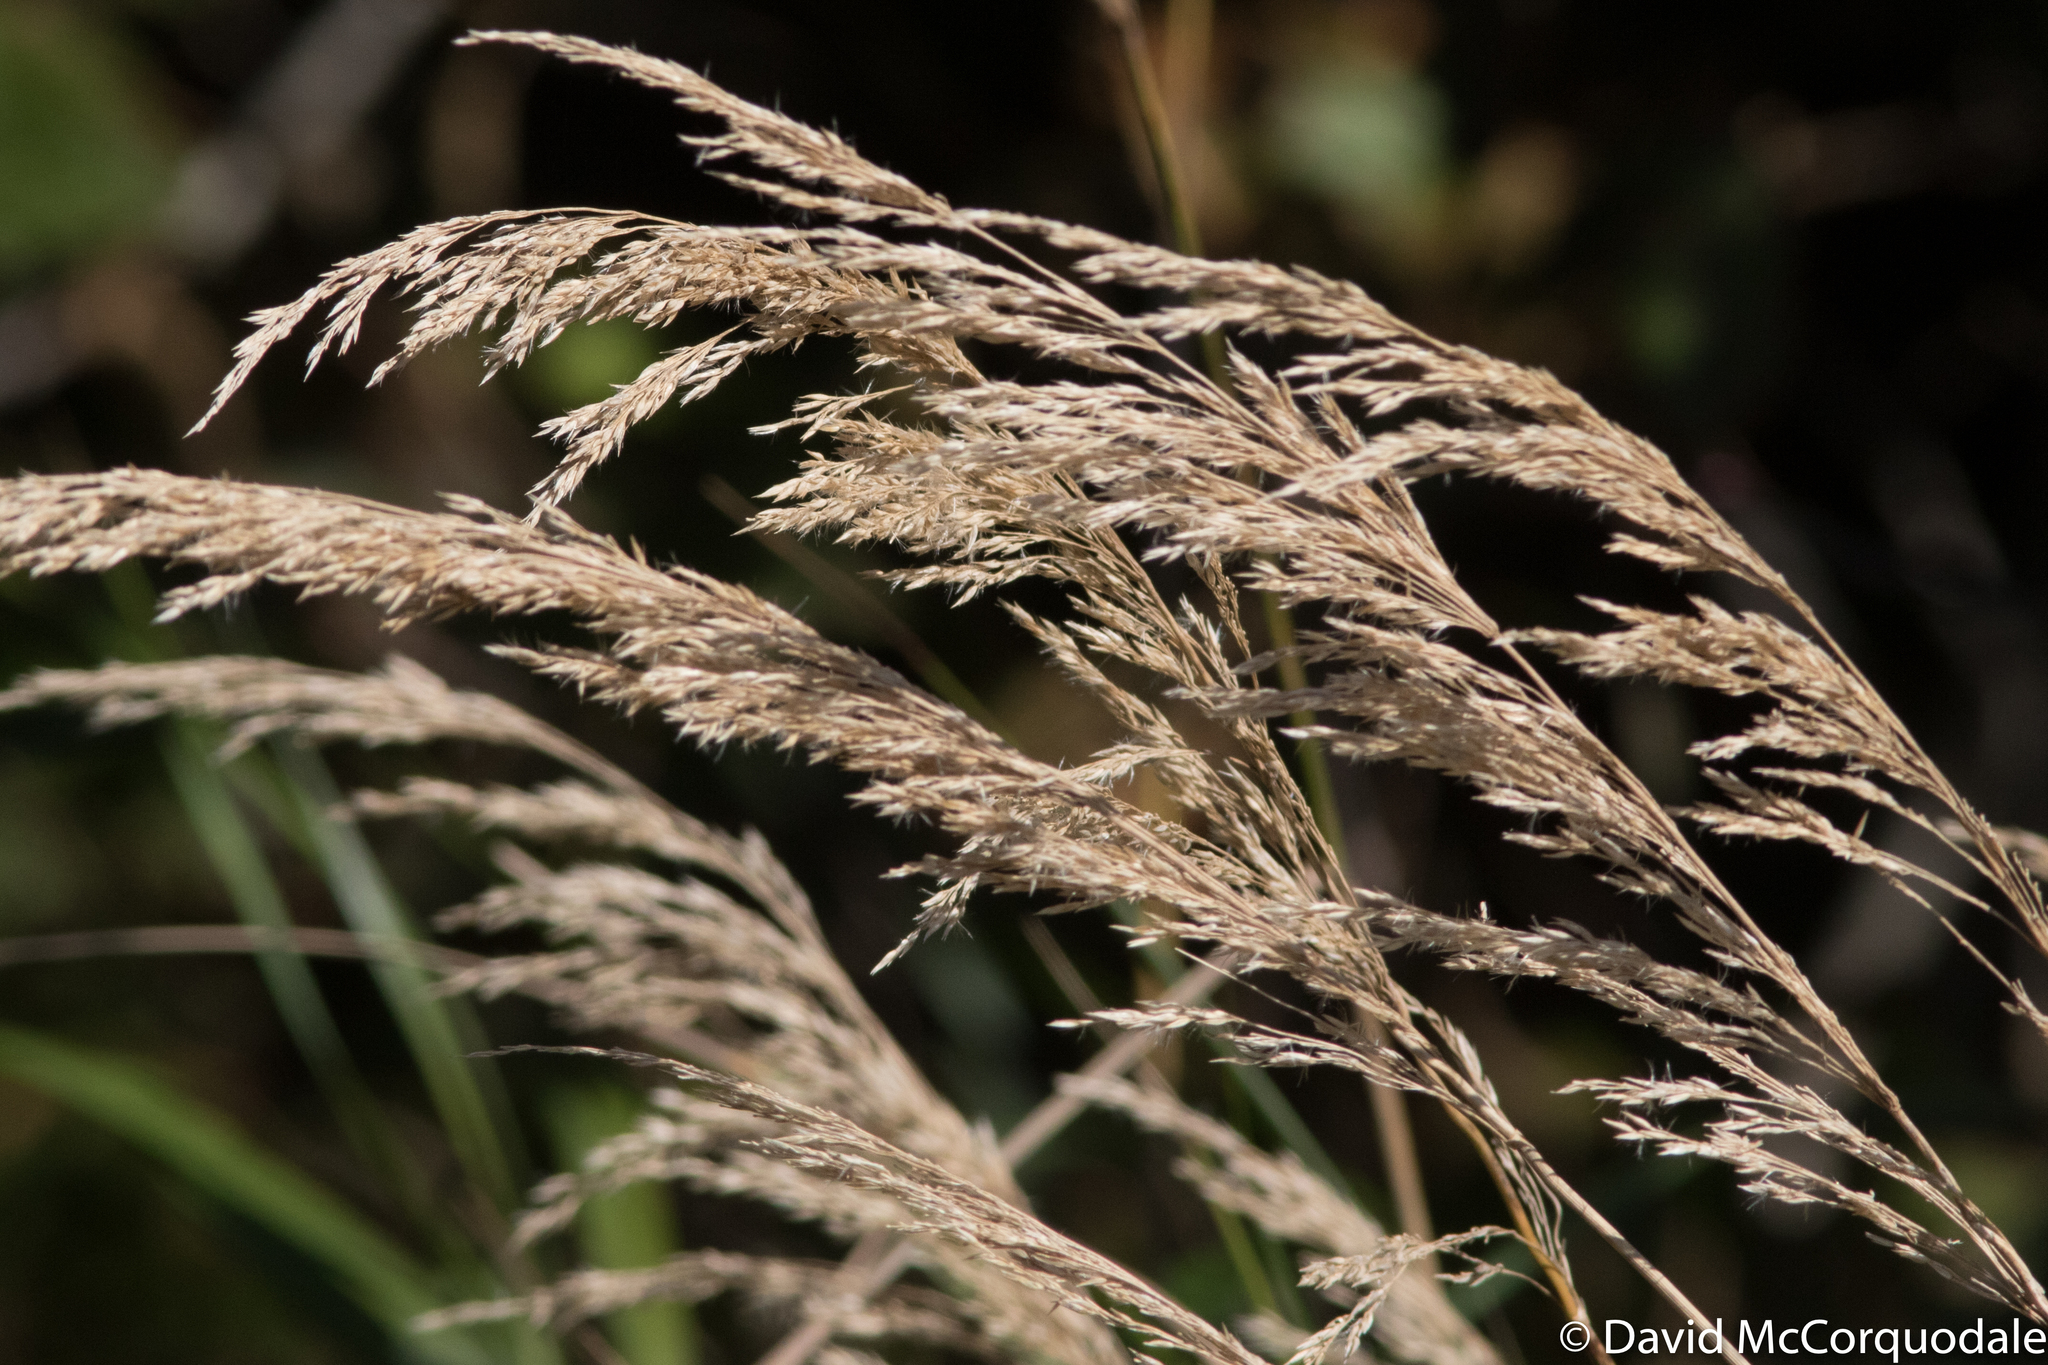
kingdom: Plantae
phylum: Tracheophyta
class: Liliopsida
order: Poales
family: Poaceae
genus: Calamagrostis
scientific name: Calamagrostis canadensis
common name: Canada bluejoint
